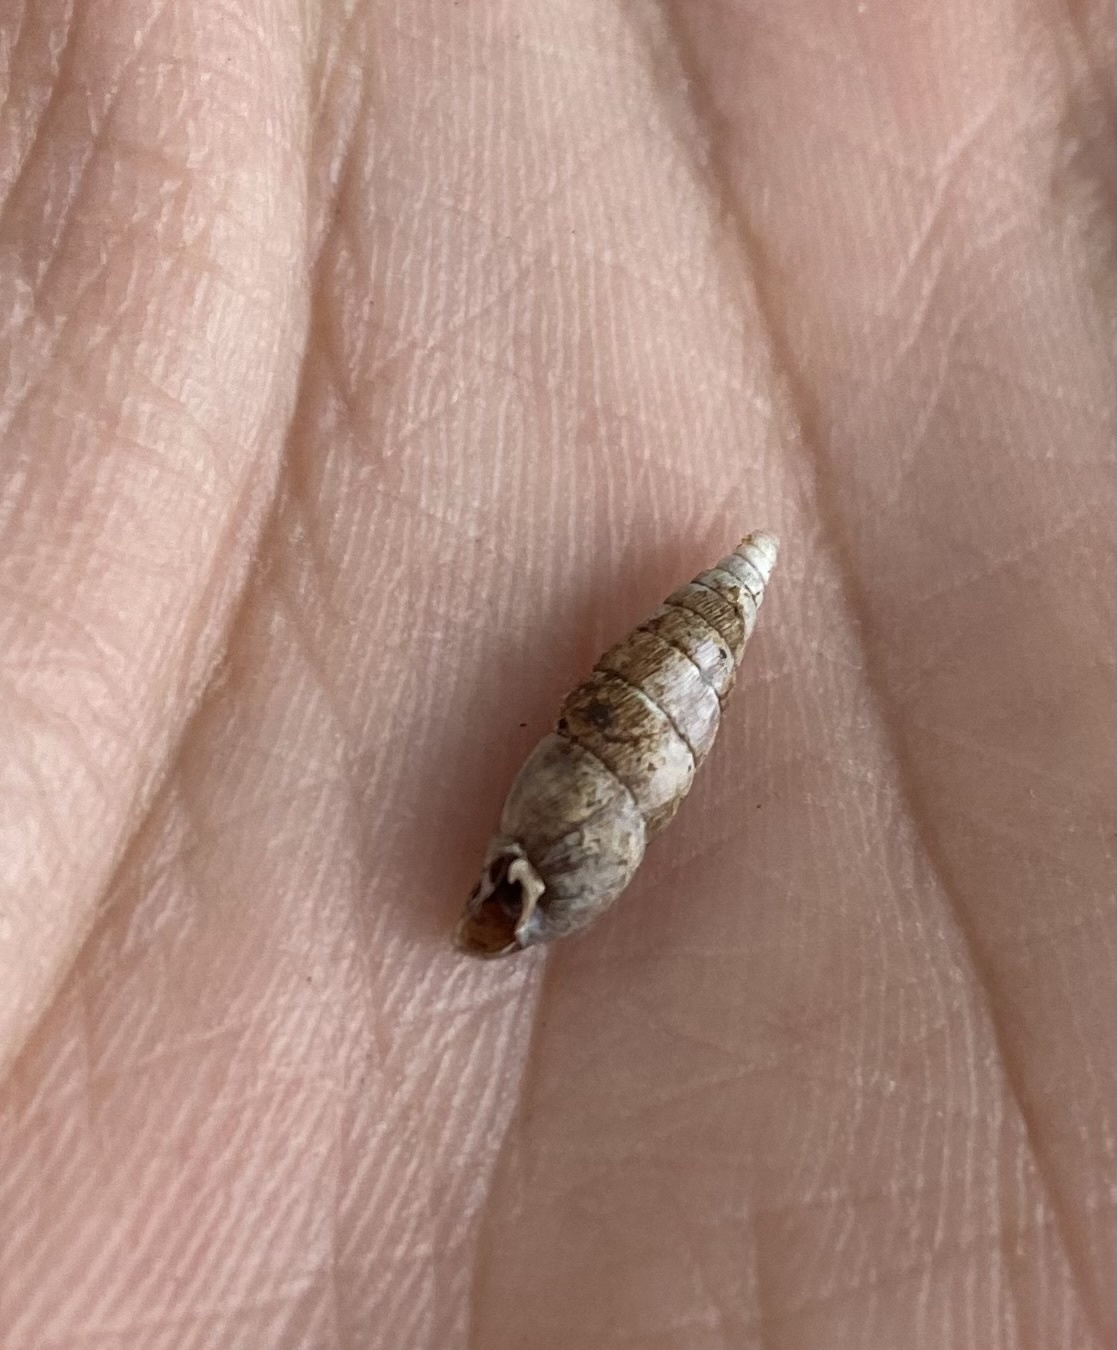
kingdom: Animalia
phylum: Mollusca
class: Gastropoda
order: Stylommatophora
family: Clausiliidae
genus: Scrobifera
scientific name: Scrobifera taurica
